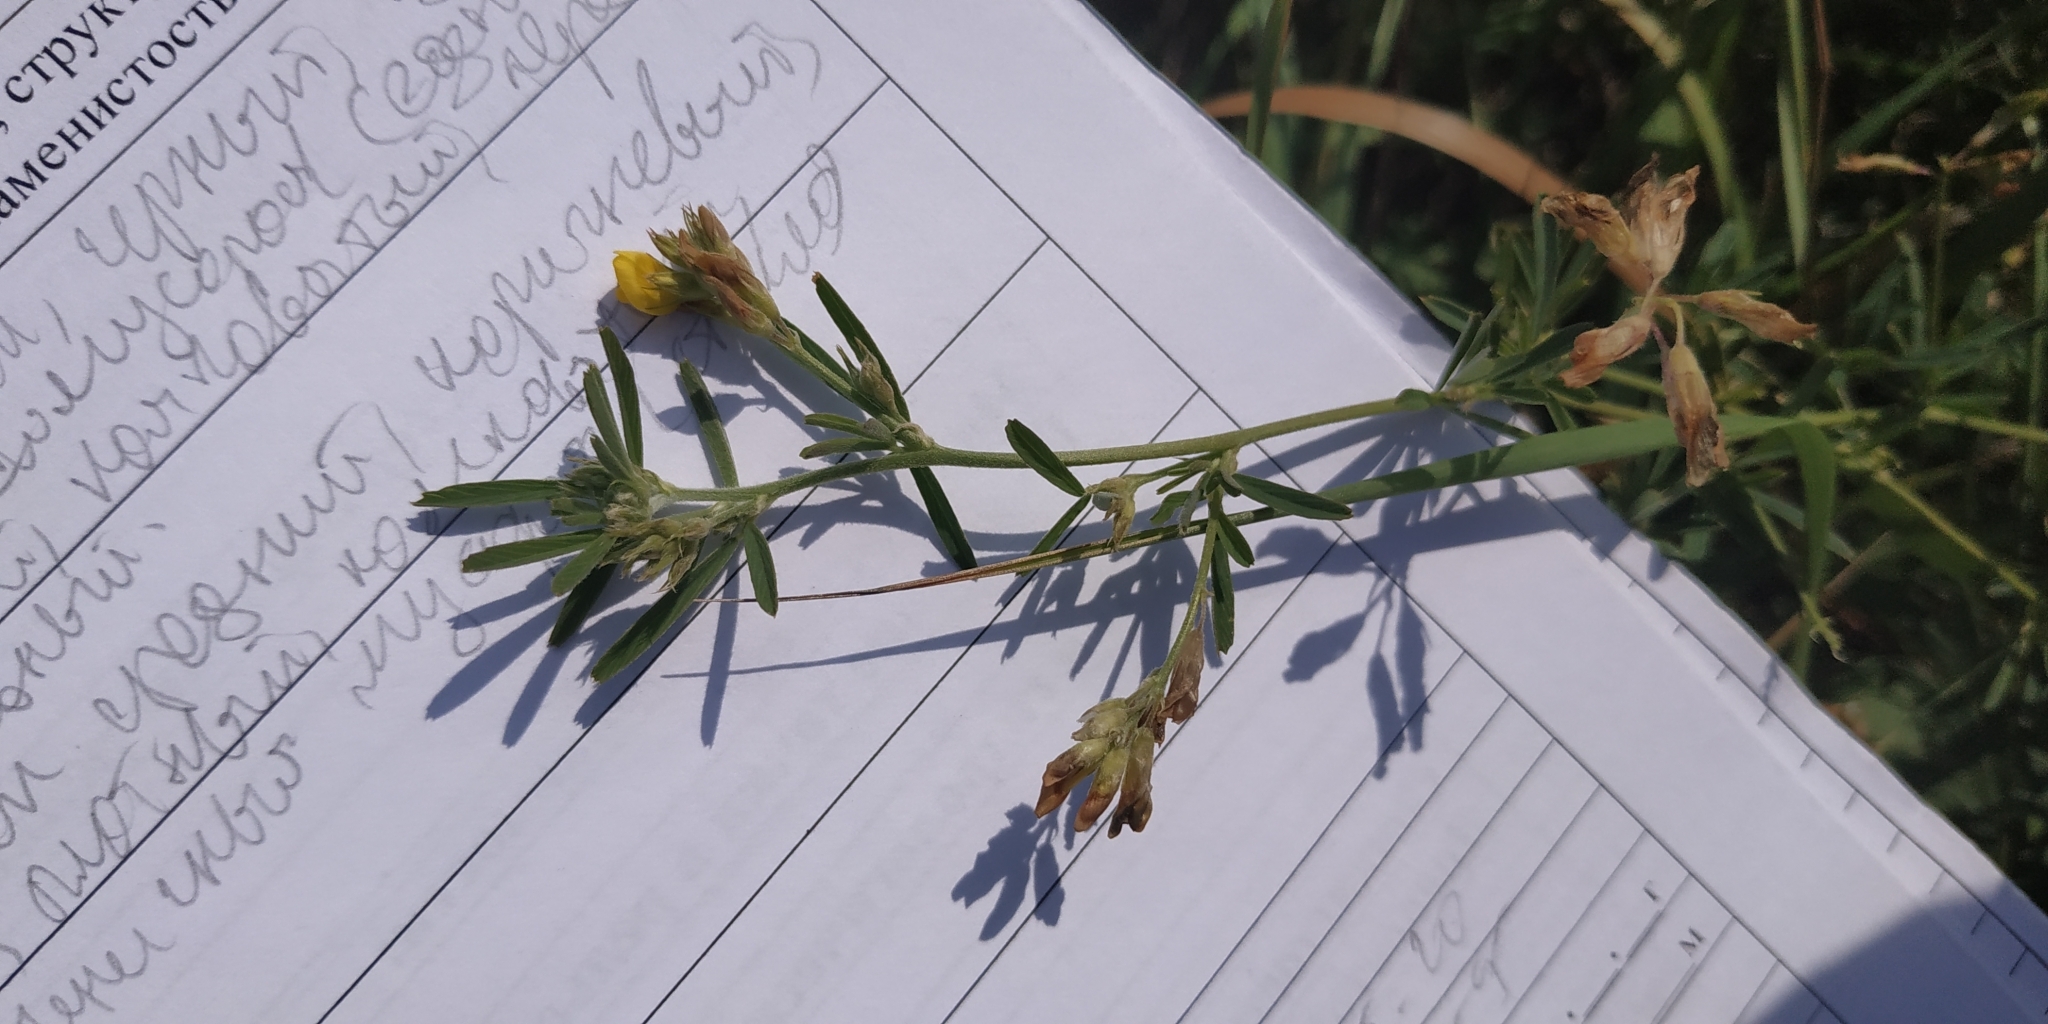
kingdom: Plantae
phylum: Tracheophyta
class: Magnoliopsida
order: Fabales
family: Fabaceae
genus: Medicago
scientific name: Medicago falcata
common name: Sickle medick
